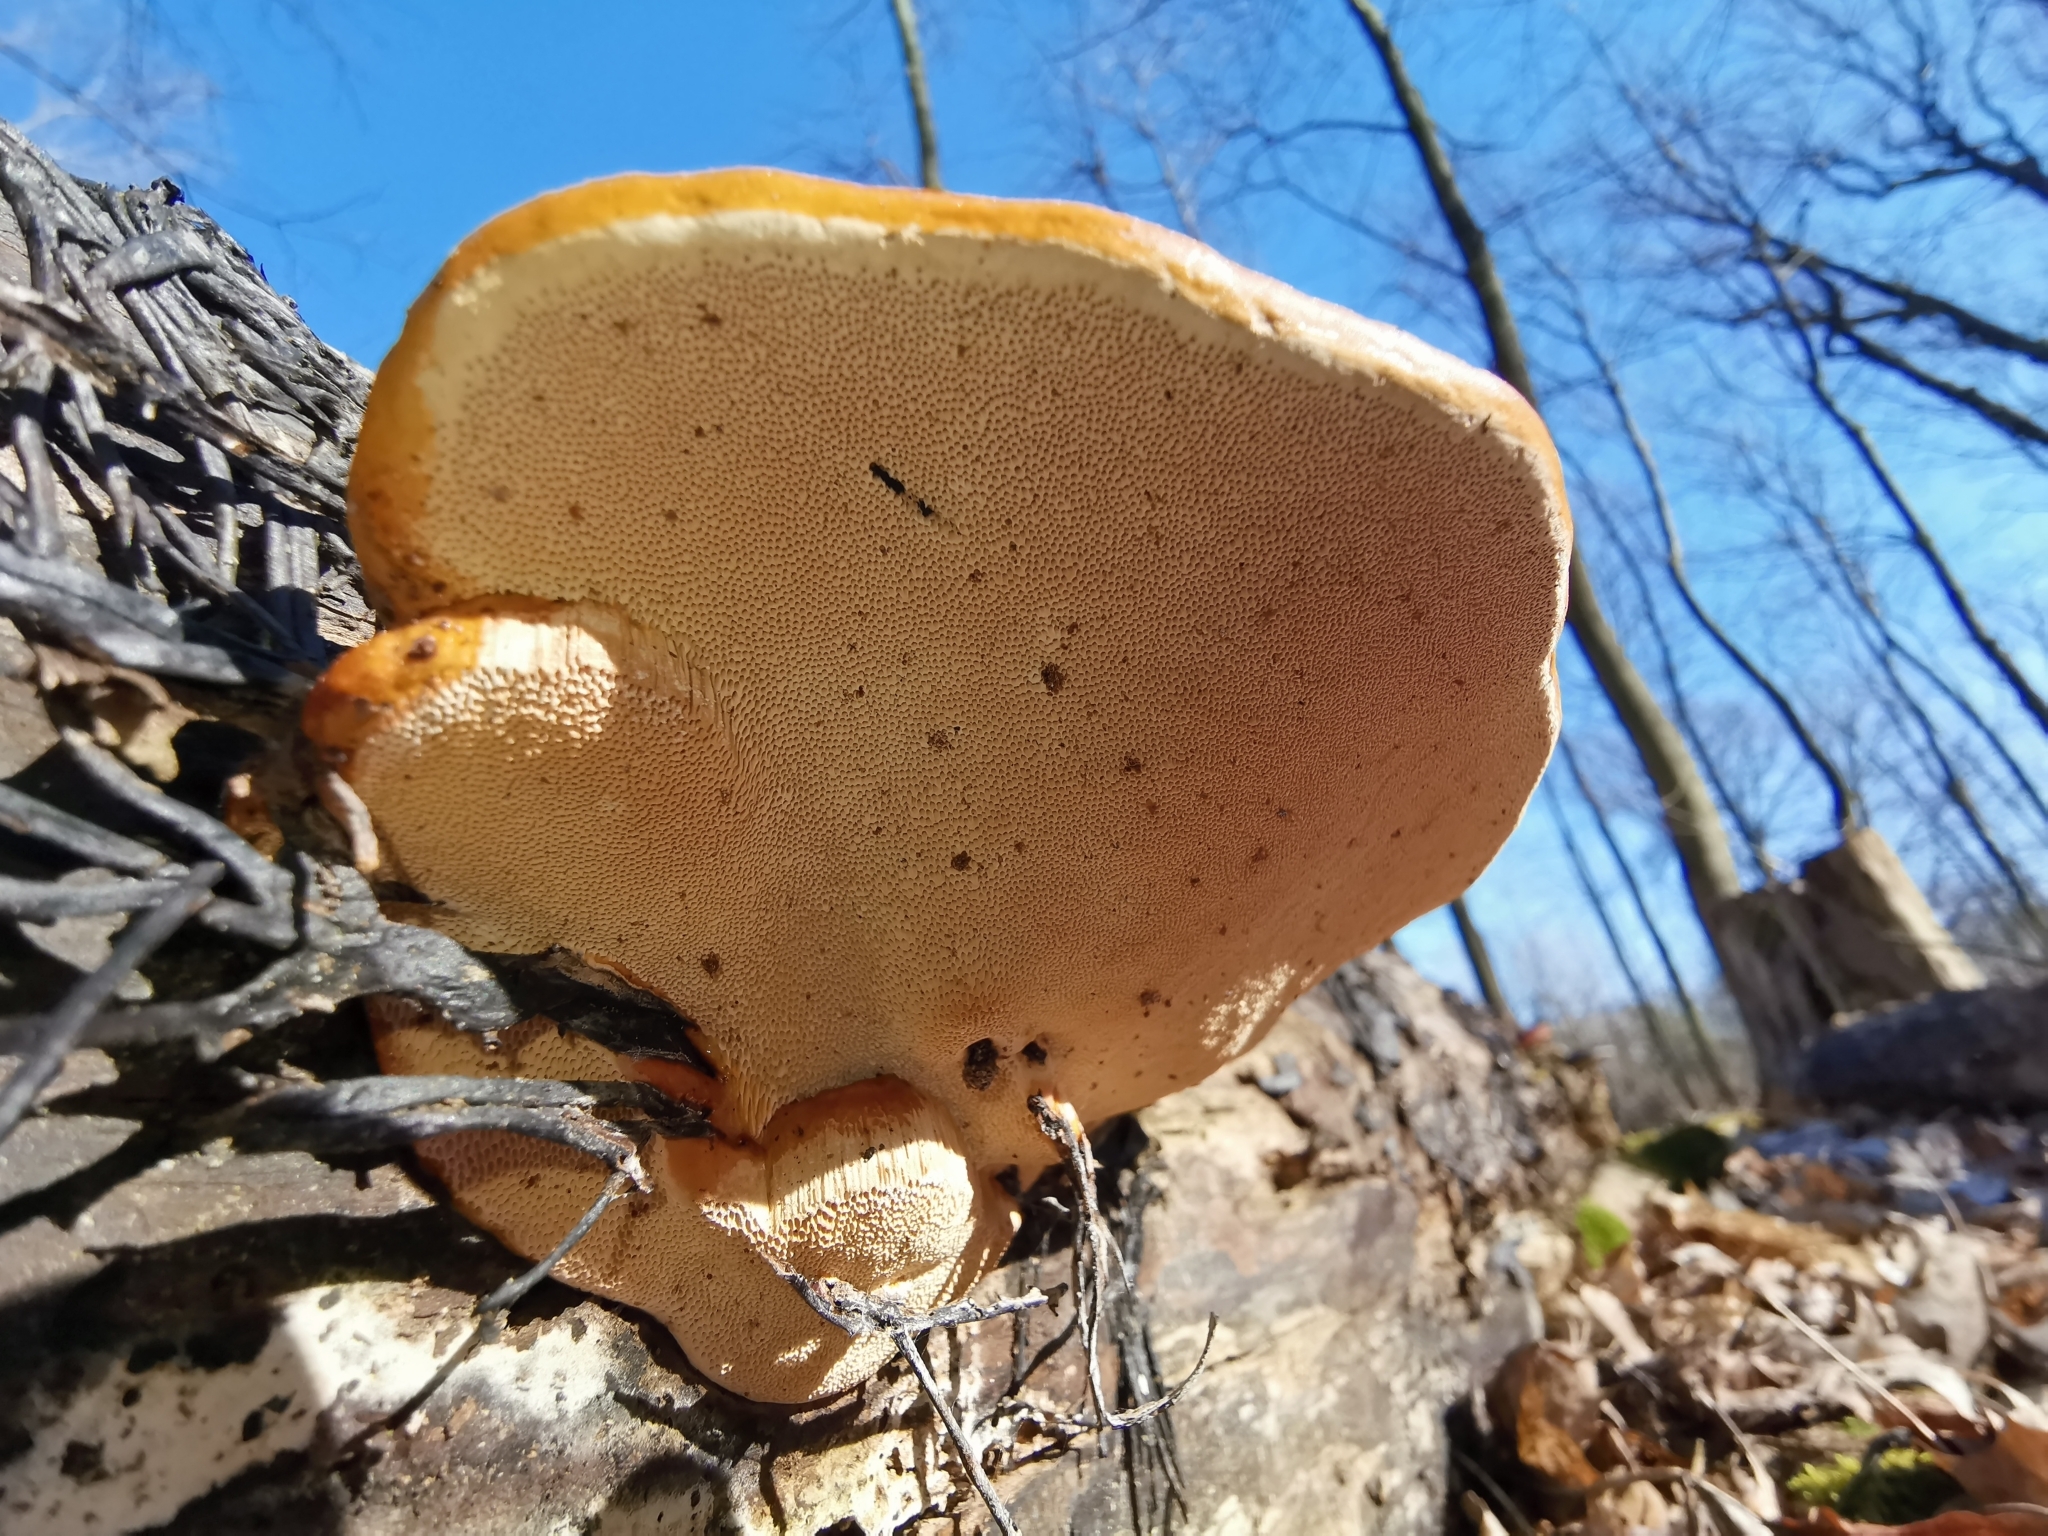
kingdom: Fungi
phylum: Basidiomycota
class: Agaricomycetes
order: Polyporales
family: Fomitopsidaceae
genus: Fomitopsis
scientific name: Fomitopsis pinicola
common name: Red-belted bracket
